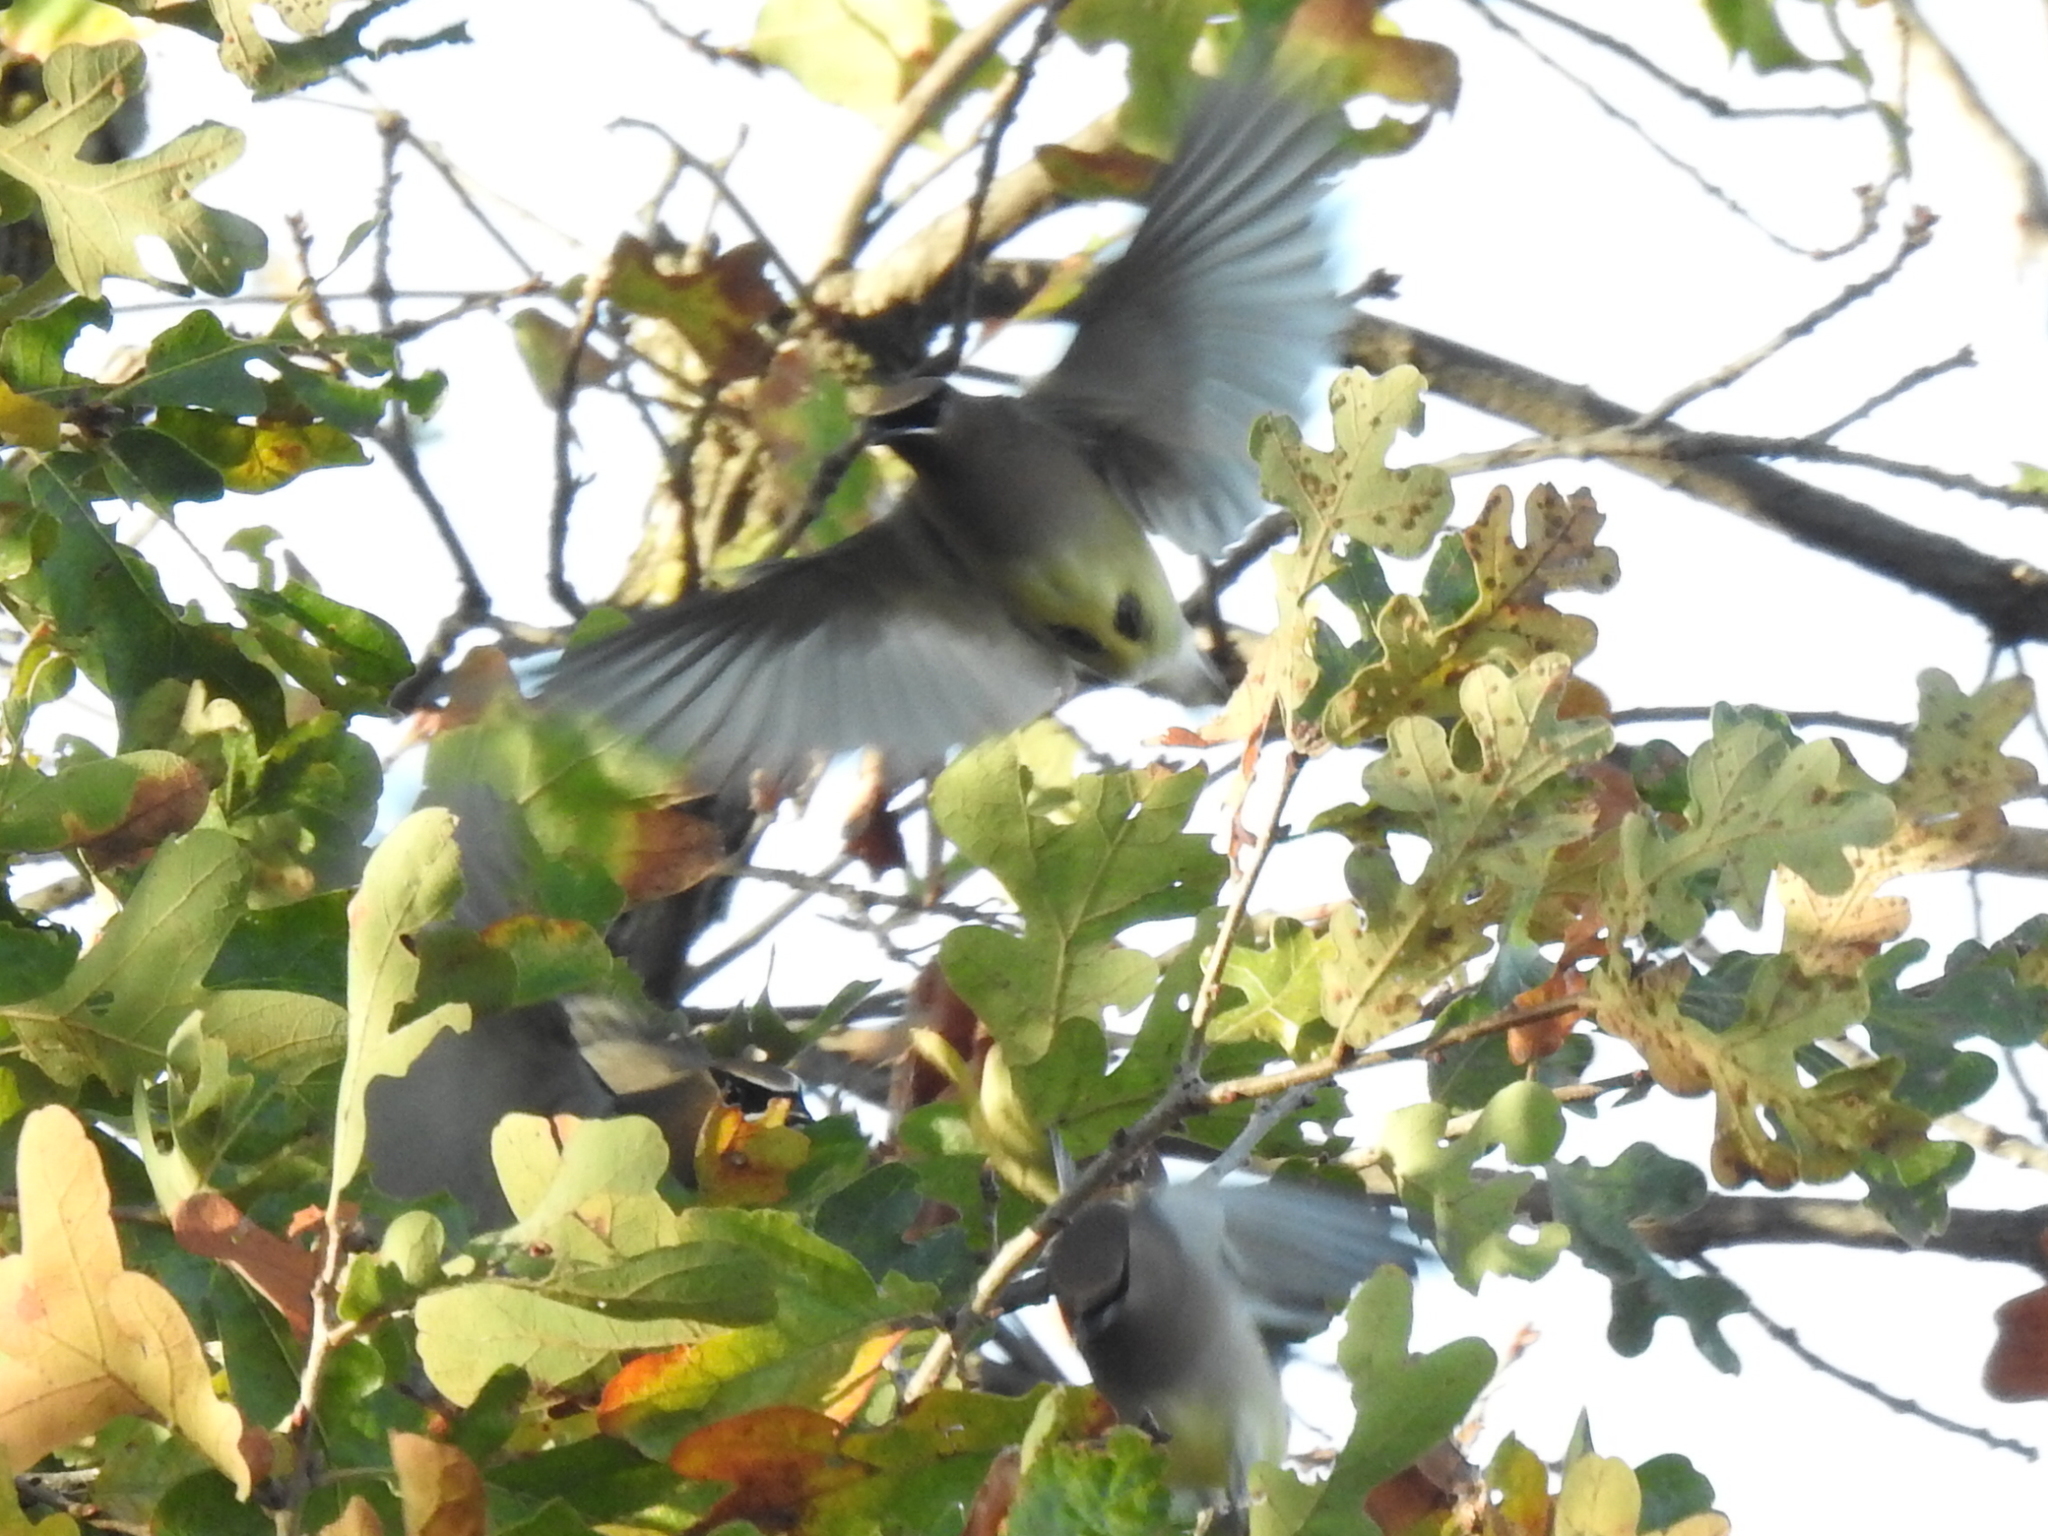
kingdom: Animalia
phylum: Chordata
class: Aves
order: Passeriformes
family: Bombycillidae
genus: Bombycilla
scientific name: Bombycilla cedrorum
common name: Cedar waxwing
